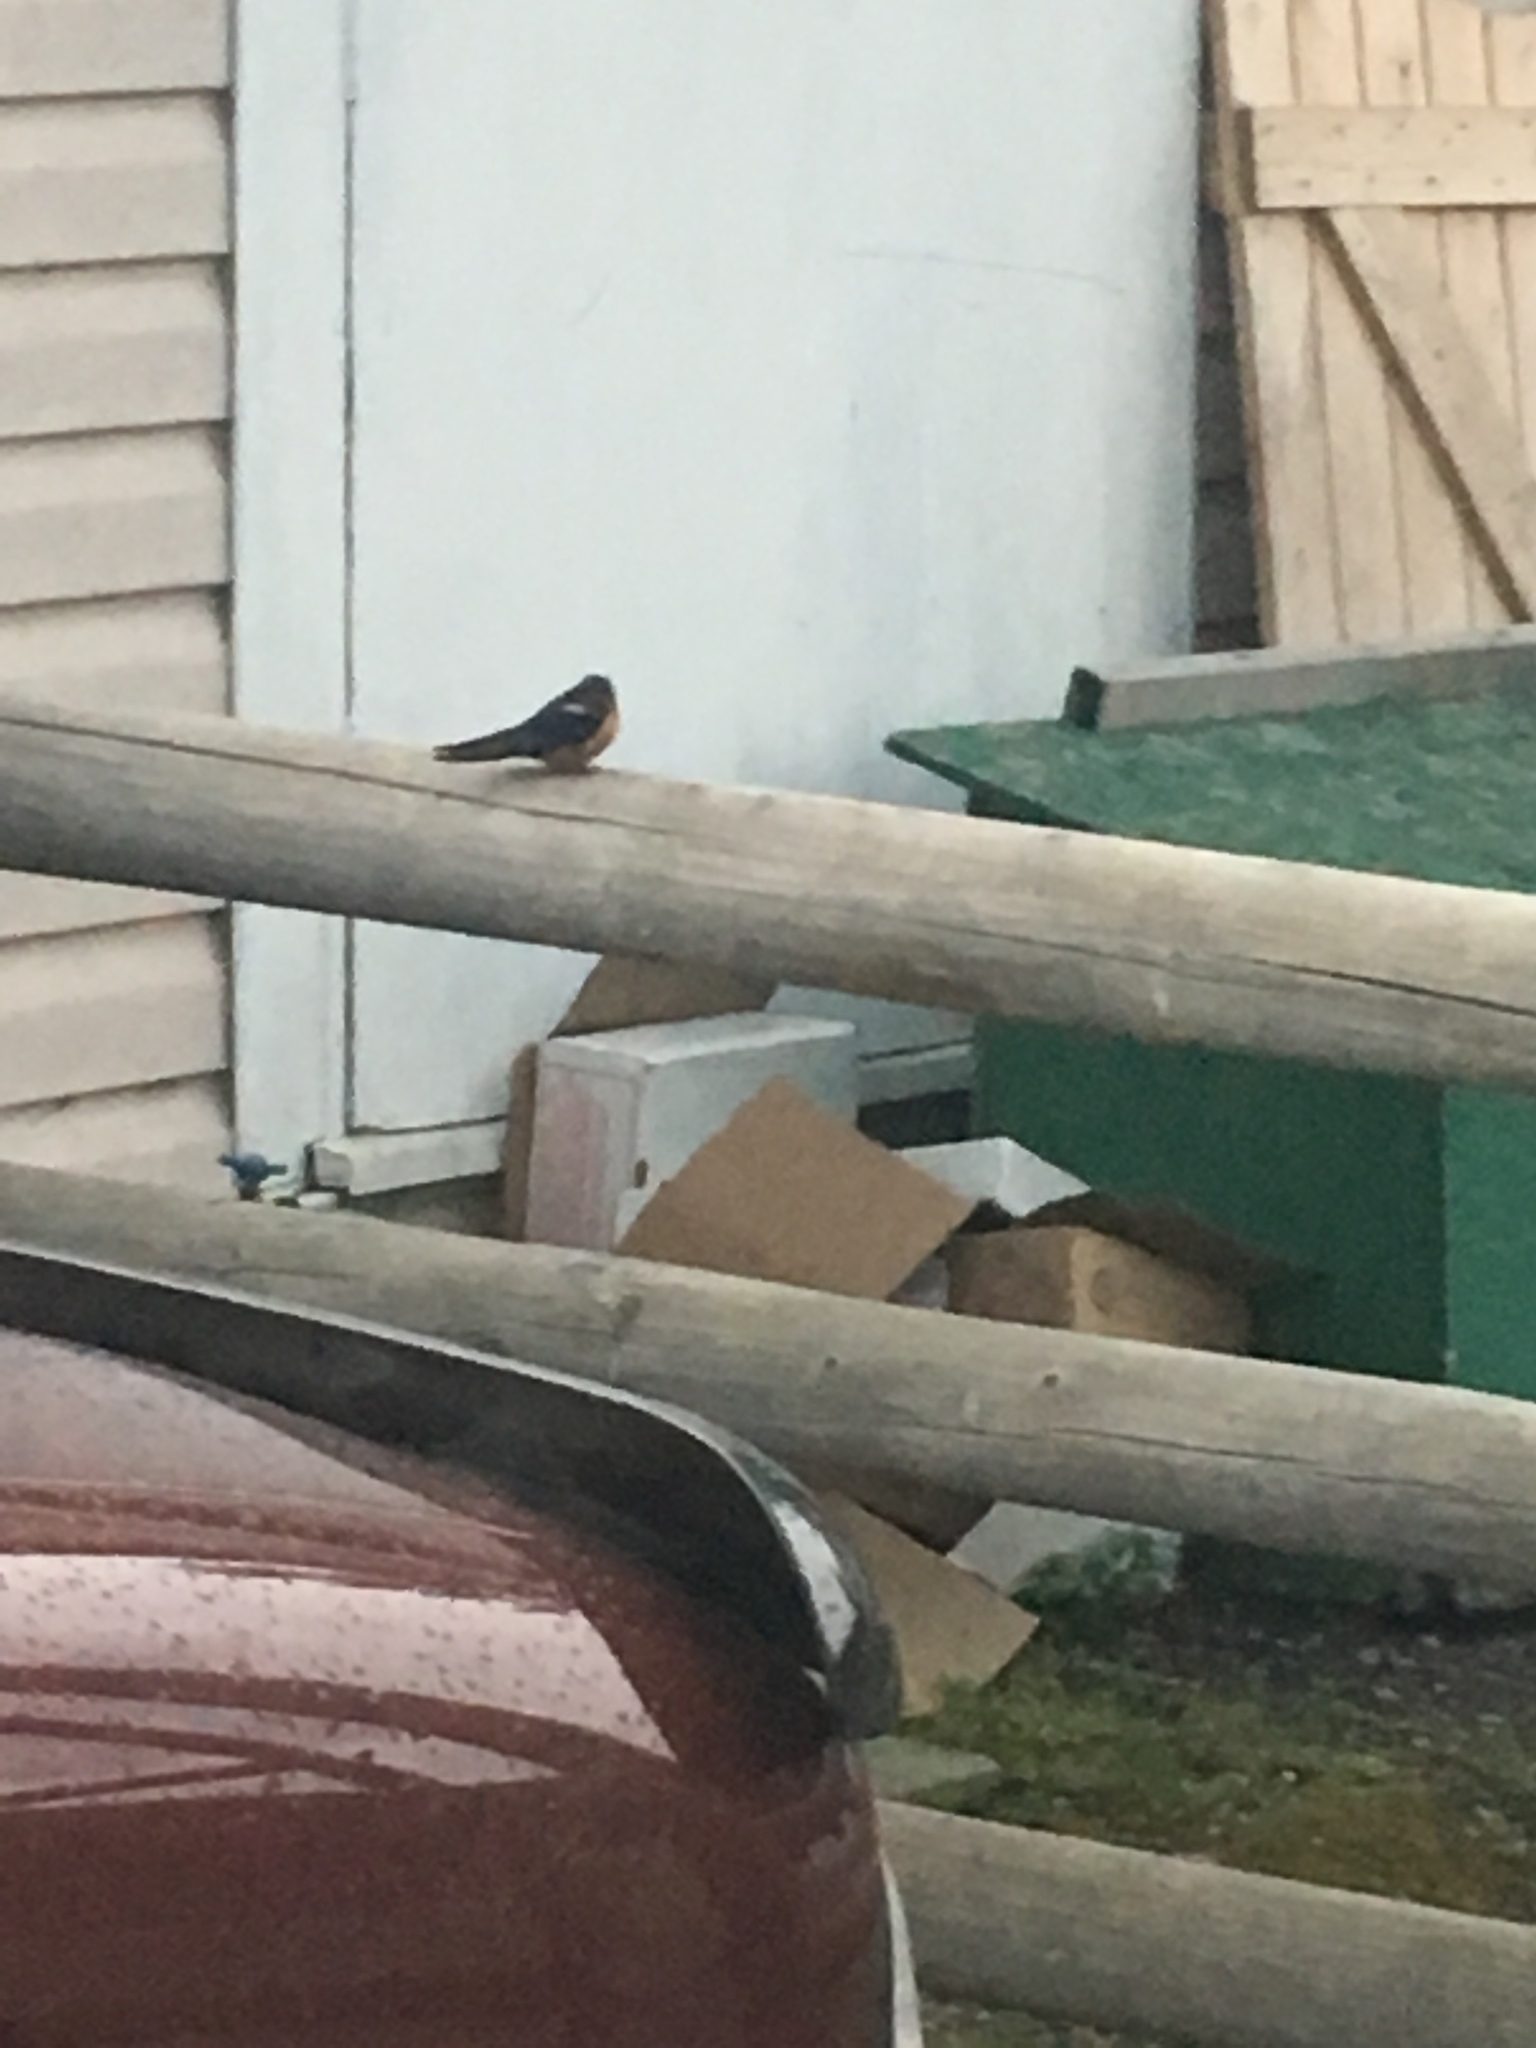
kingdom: Animalia
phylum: Chordata
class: Aves
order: Passeriformes
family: Hirundinidae
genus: Hirundo
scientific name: Hirundo rustica
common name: Barn swallow
